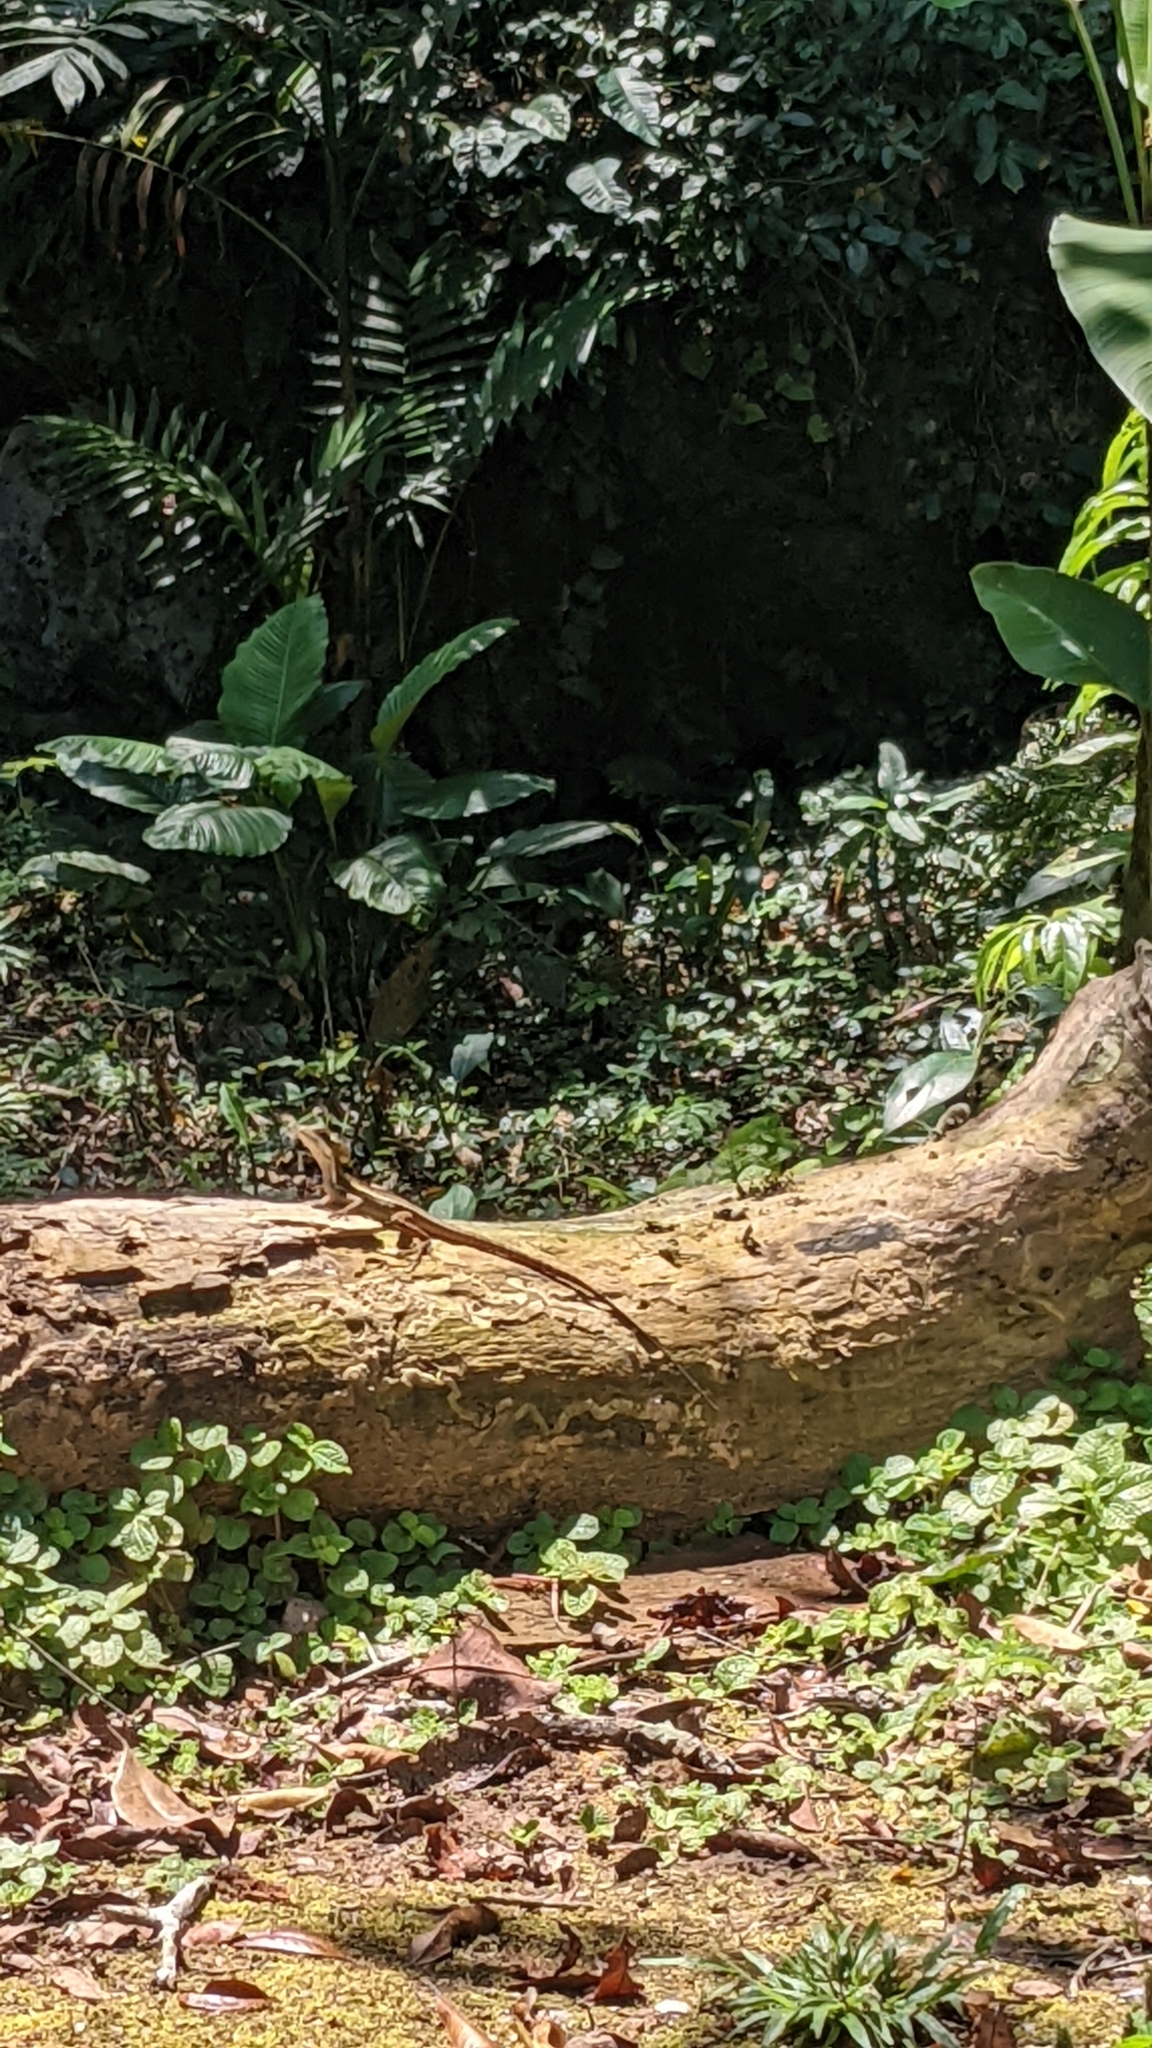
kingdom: Animalia
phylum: Chordata
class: Squamata
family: Corytophanidae
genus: Basiliscus
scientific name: Basiliscus vittatus
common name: Brown basilisk
